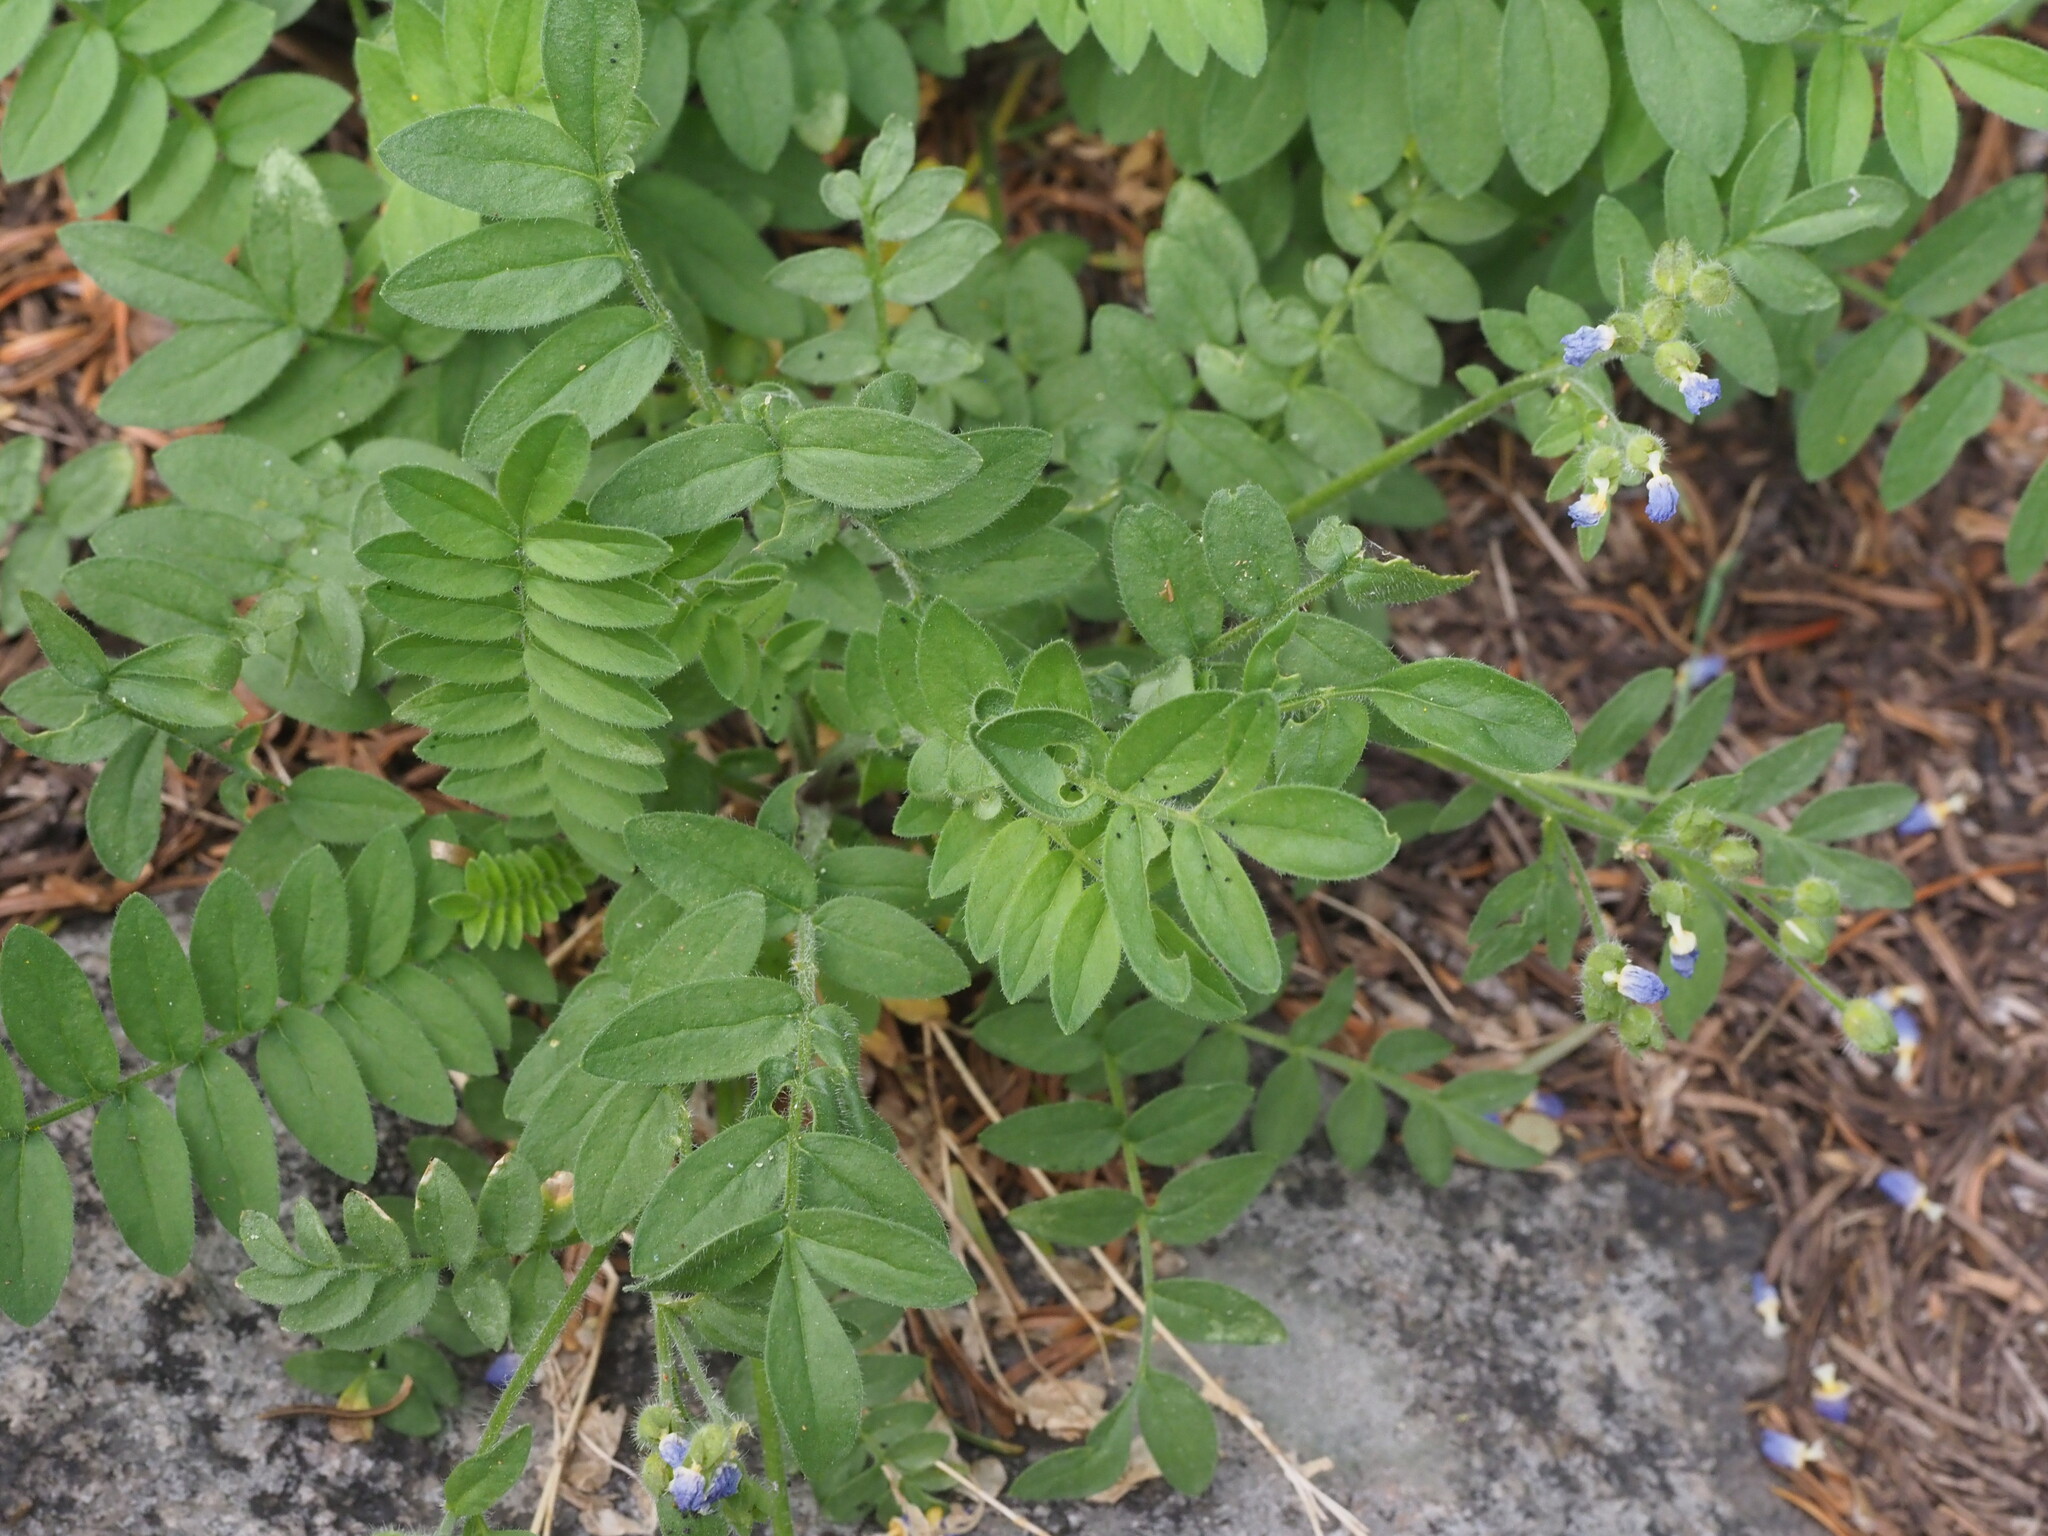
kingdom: Plantae
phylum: Tracheophyta
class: Magnoliopsida
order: Ericales
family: Polemoniaceae
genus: Polemonium
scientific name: Polemonium californicum
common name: California jacob's ladder
